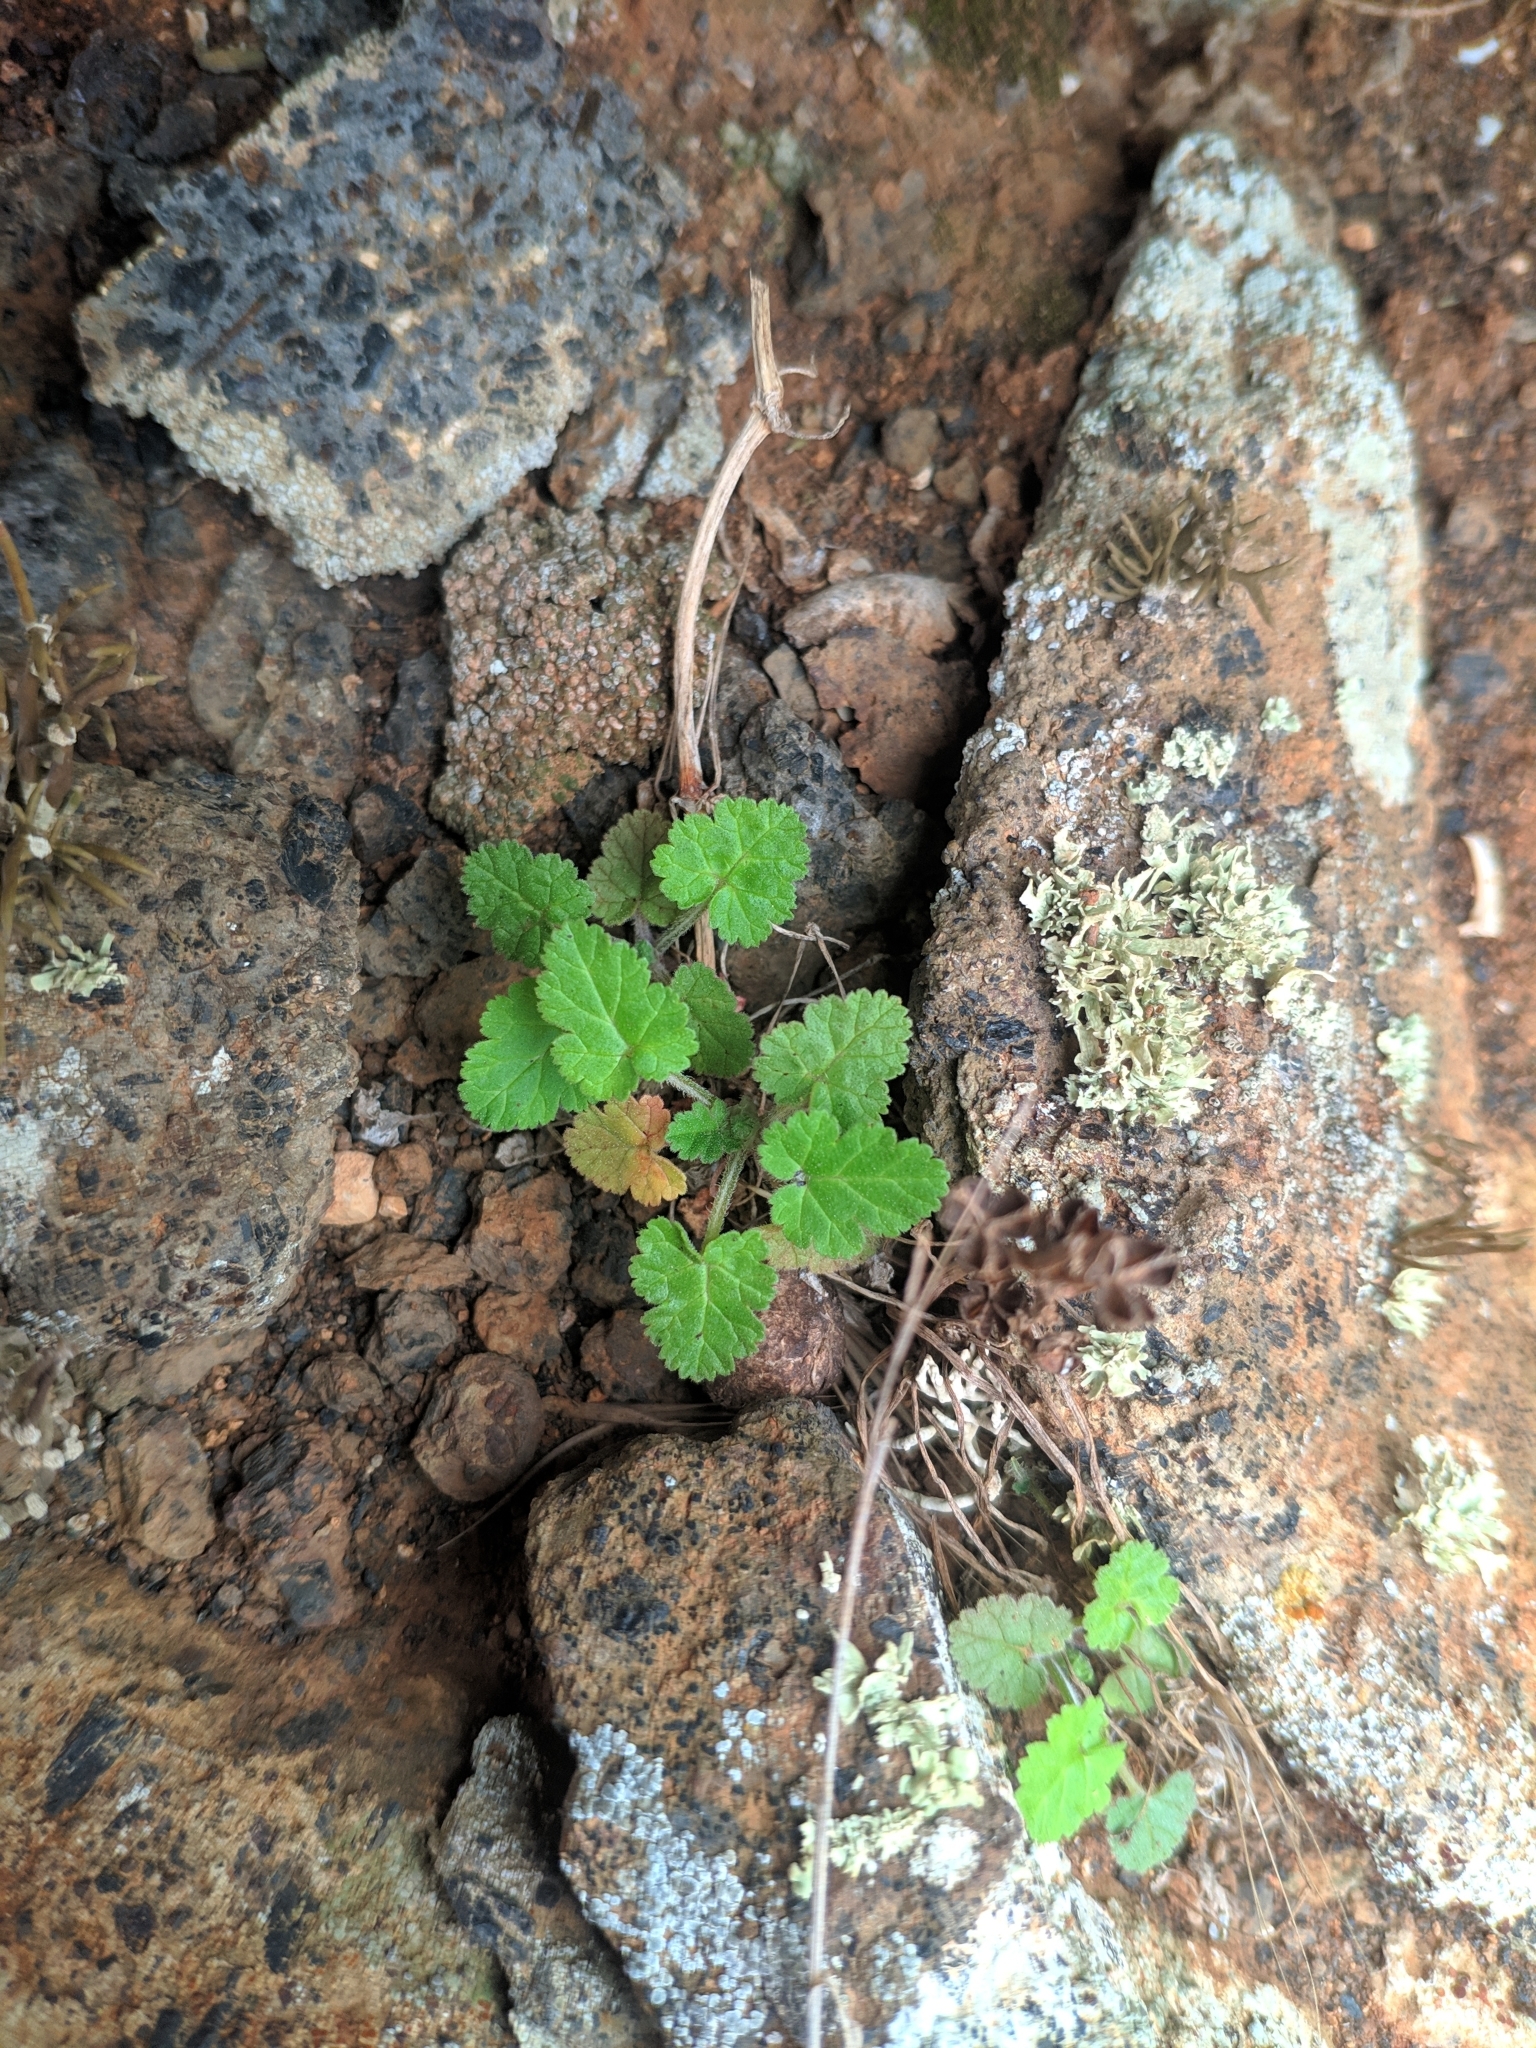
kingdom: Plantae
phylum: Tracheophyta
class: Magnoliopsida
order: Geraniales
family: Geraniaceae
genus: Erodium
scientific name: Erodium malacoides
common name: Soft stork's-bill
